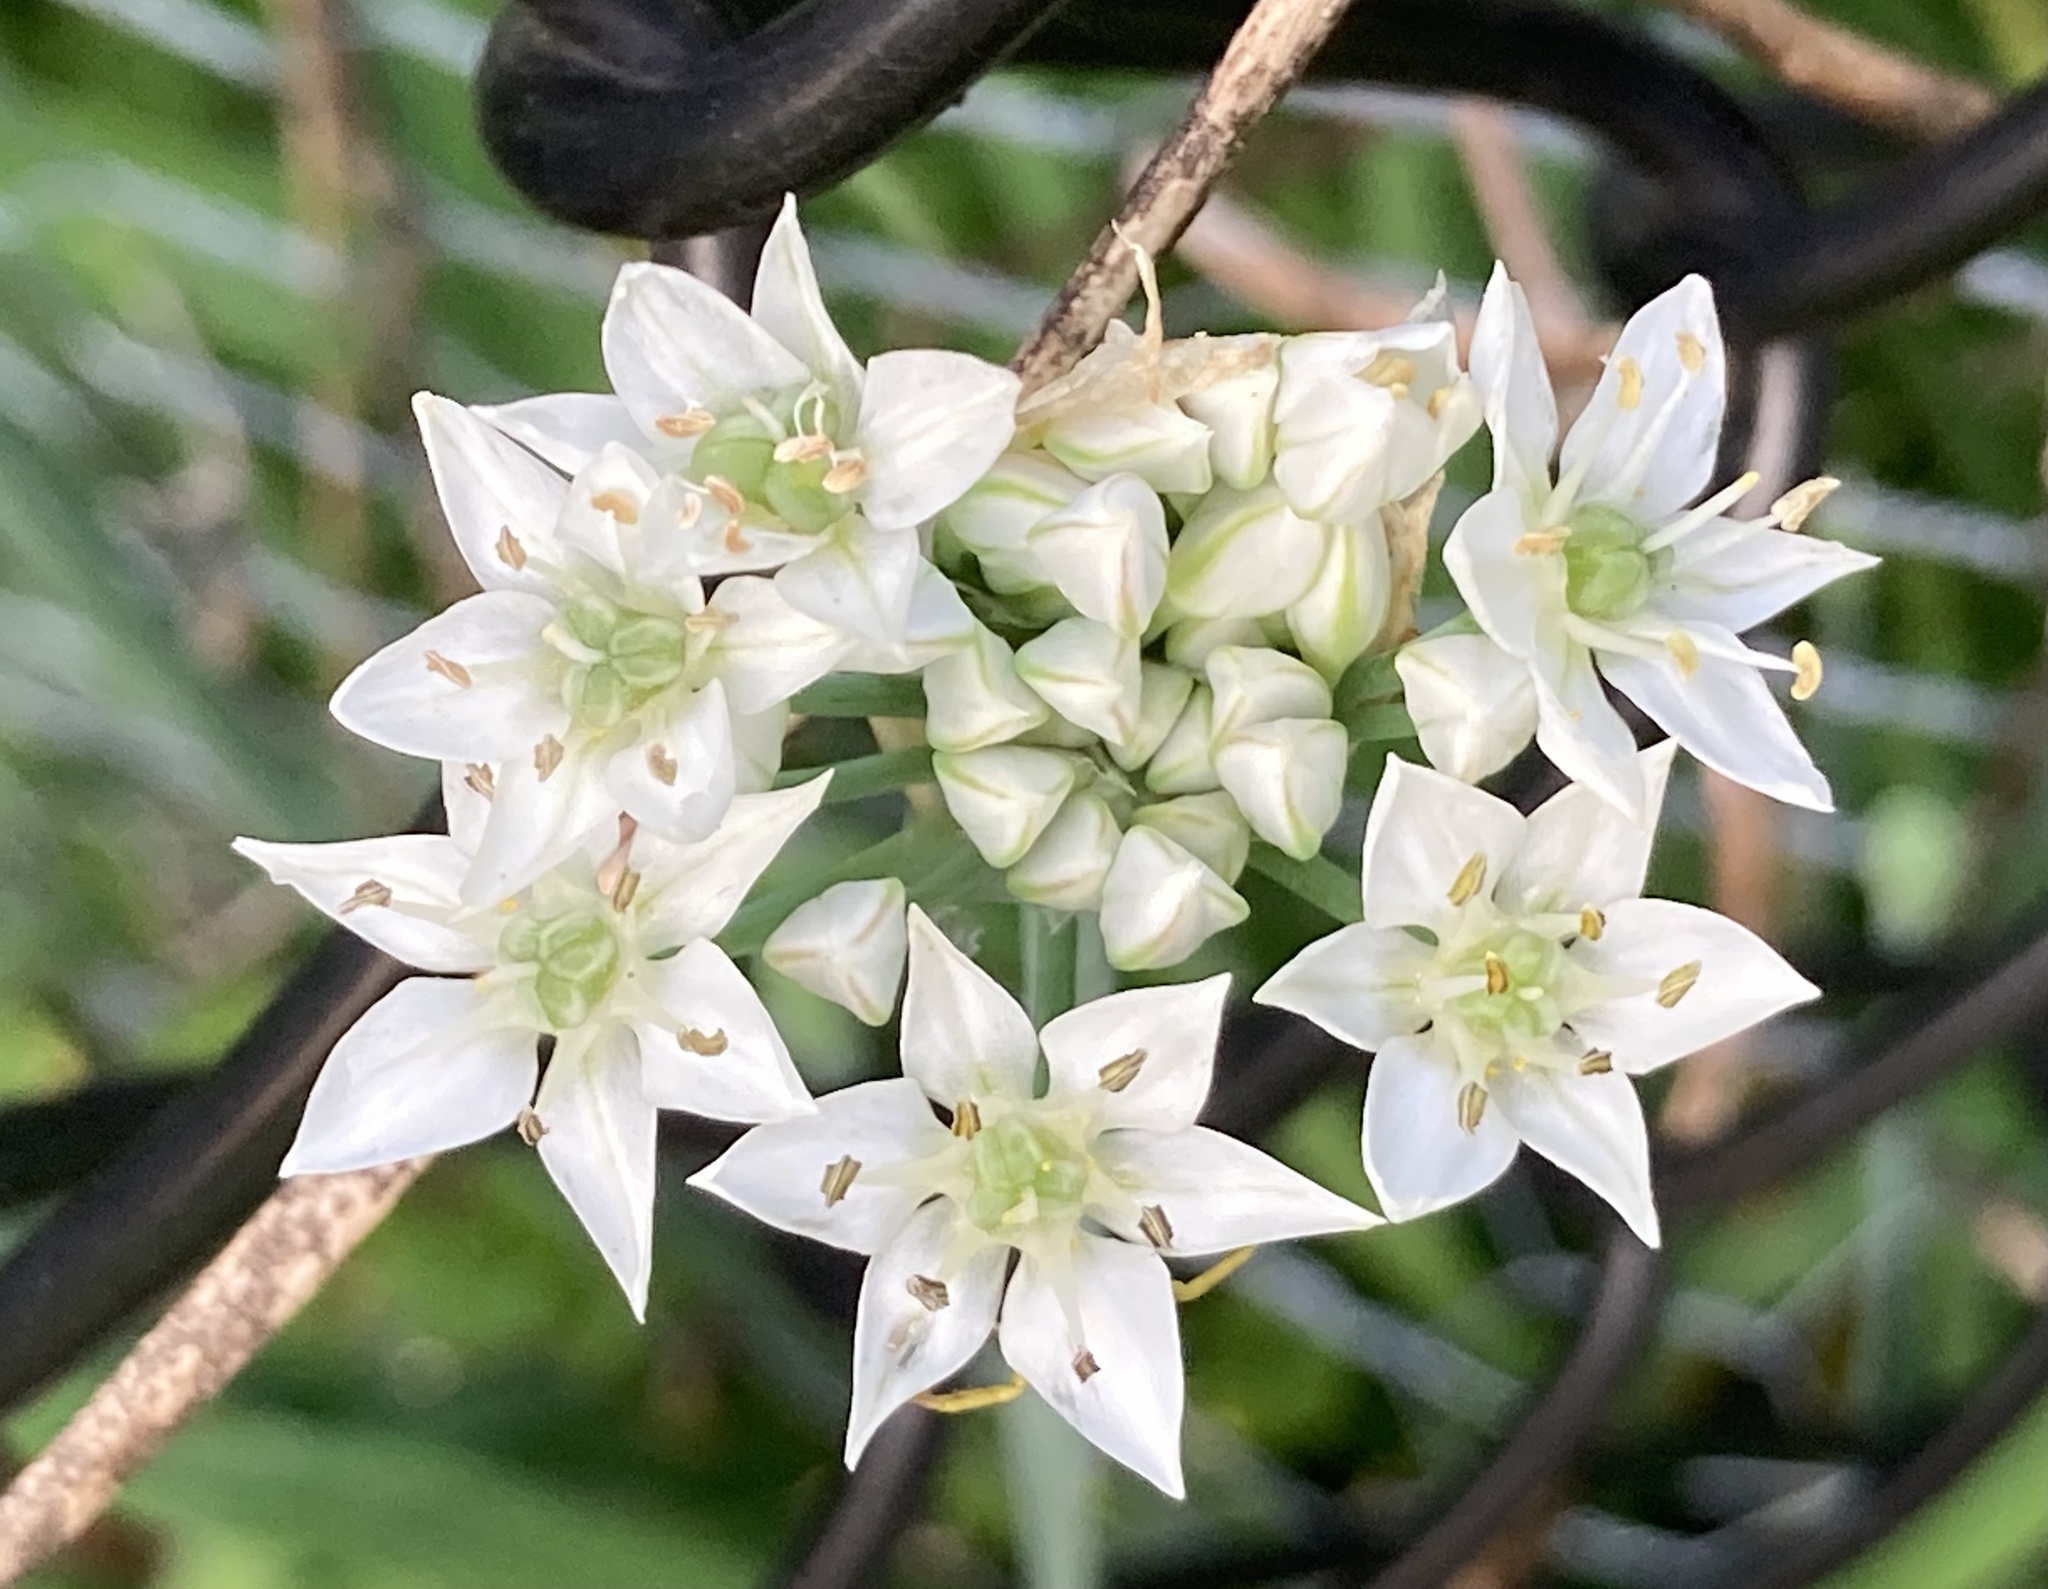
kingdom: Plantae
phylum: Tracheophyta
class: Liliopsida
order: Asparagales
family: Amaryllidaceae
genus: Allium
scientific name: Allium tuberosum
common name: Chinese chives
